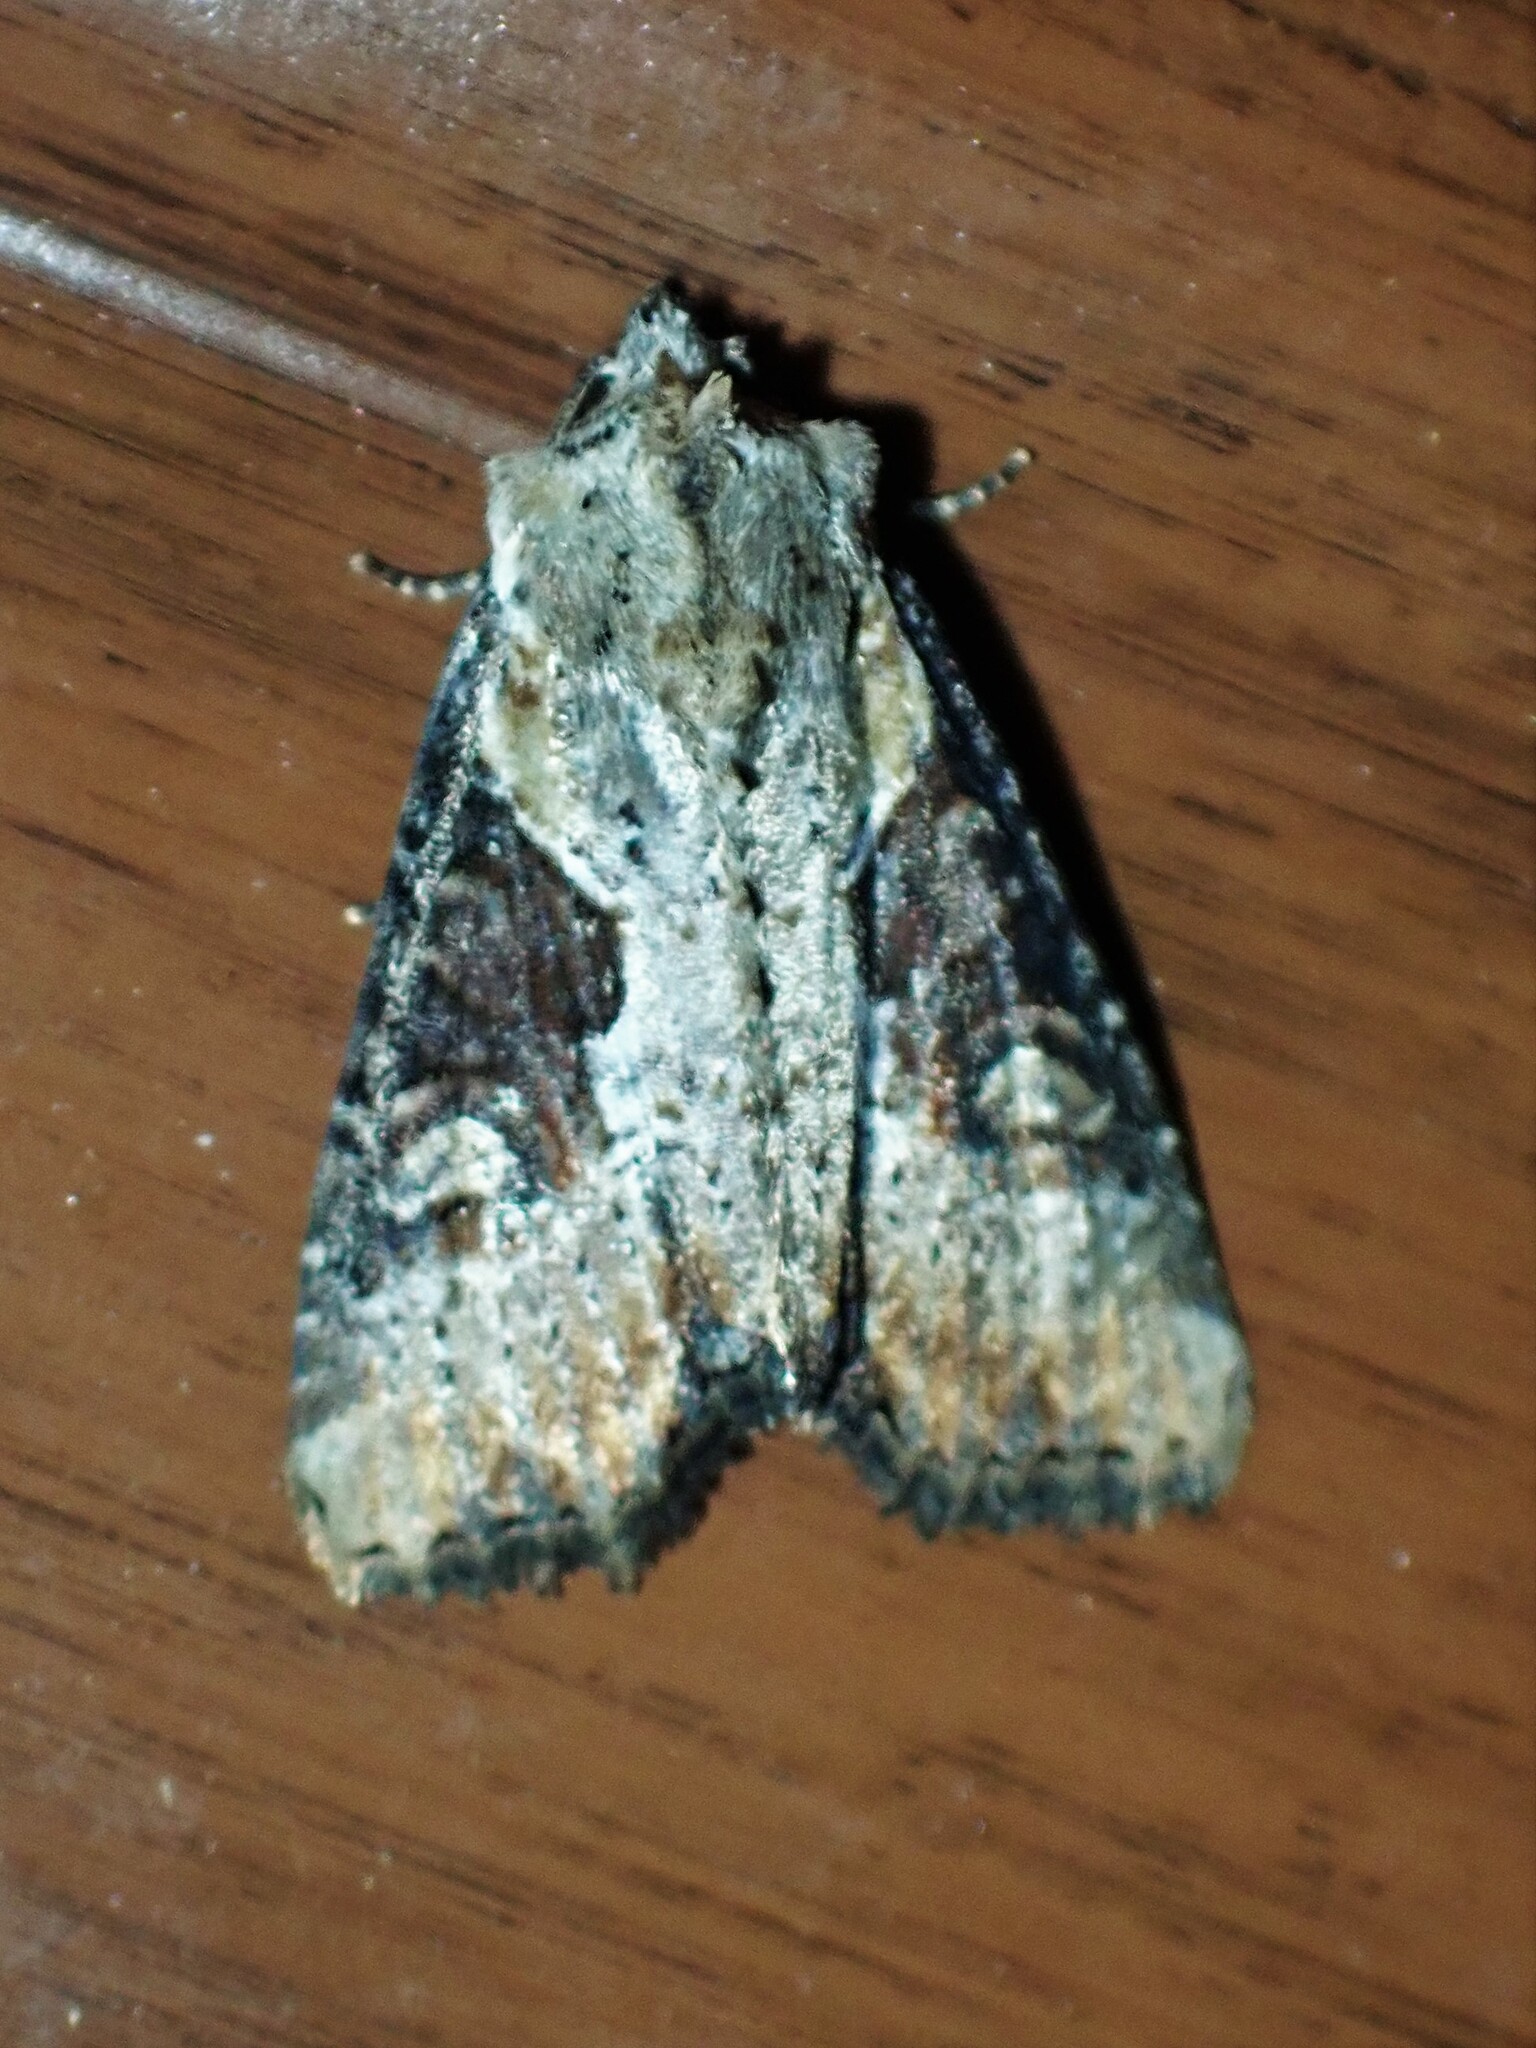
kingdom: Animalia
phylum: Arthropoda
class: Insecta
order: Lepidoptera
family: Noctuidae
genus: Lateroligia
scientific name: Lateroligia ophiogramma
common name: Double lobed
